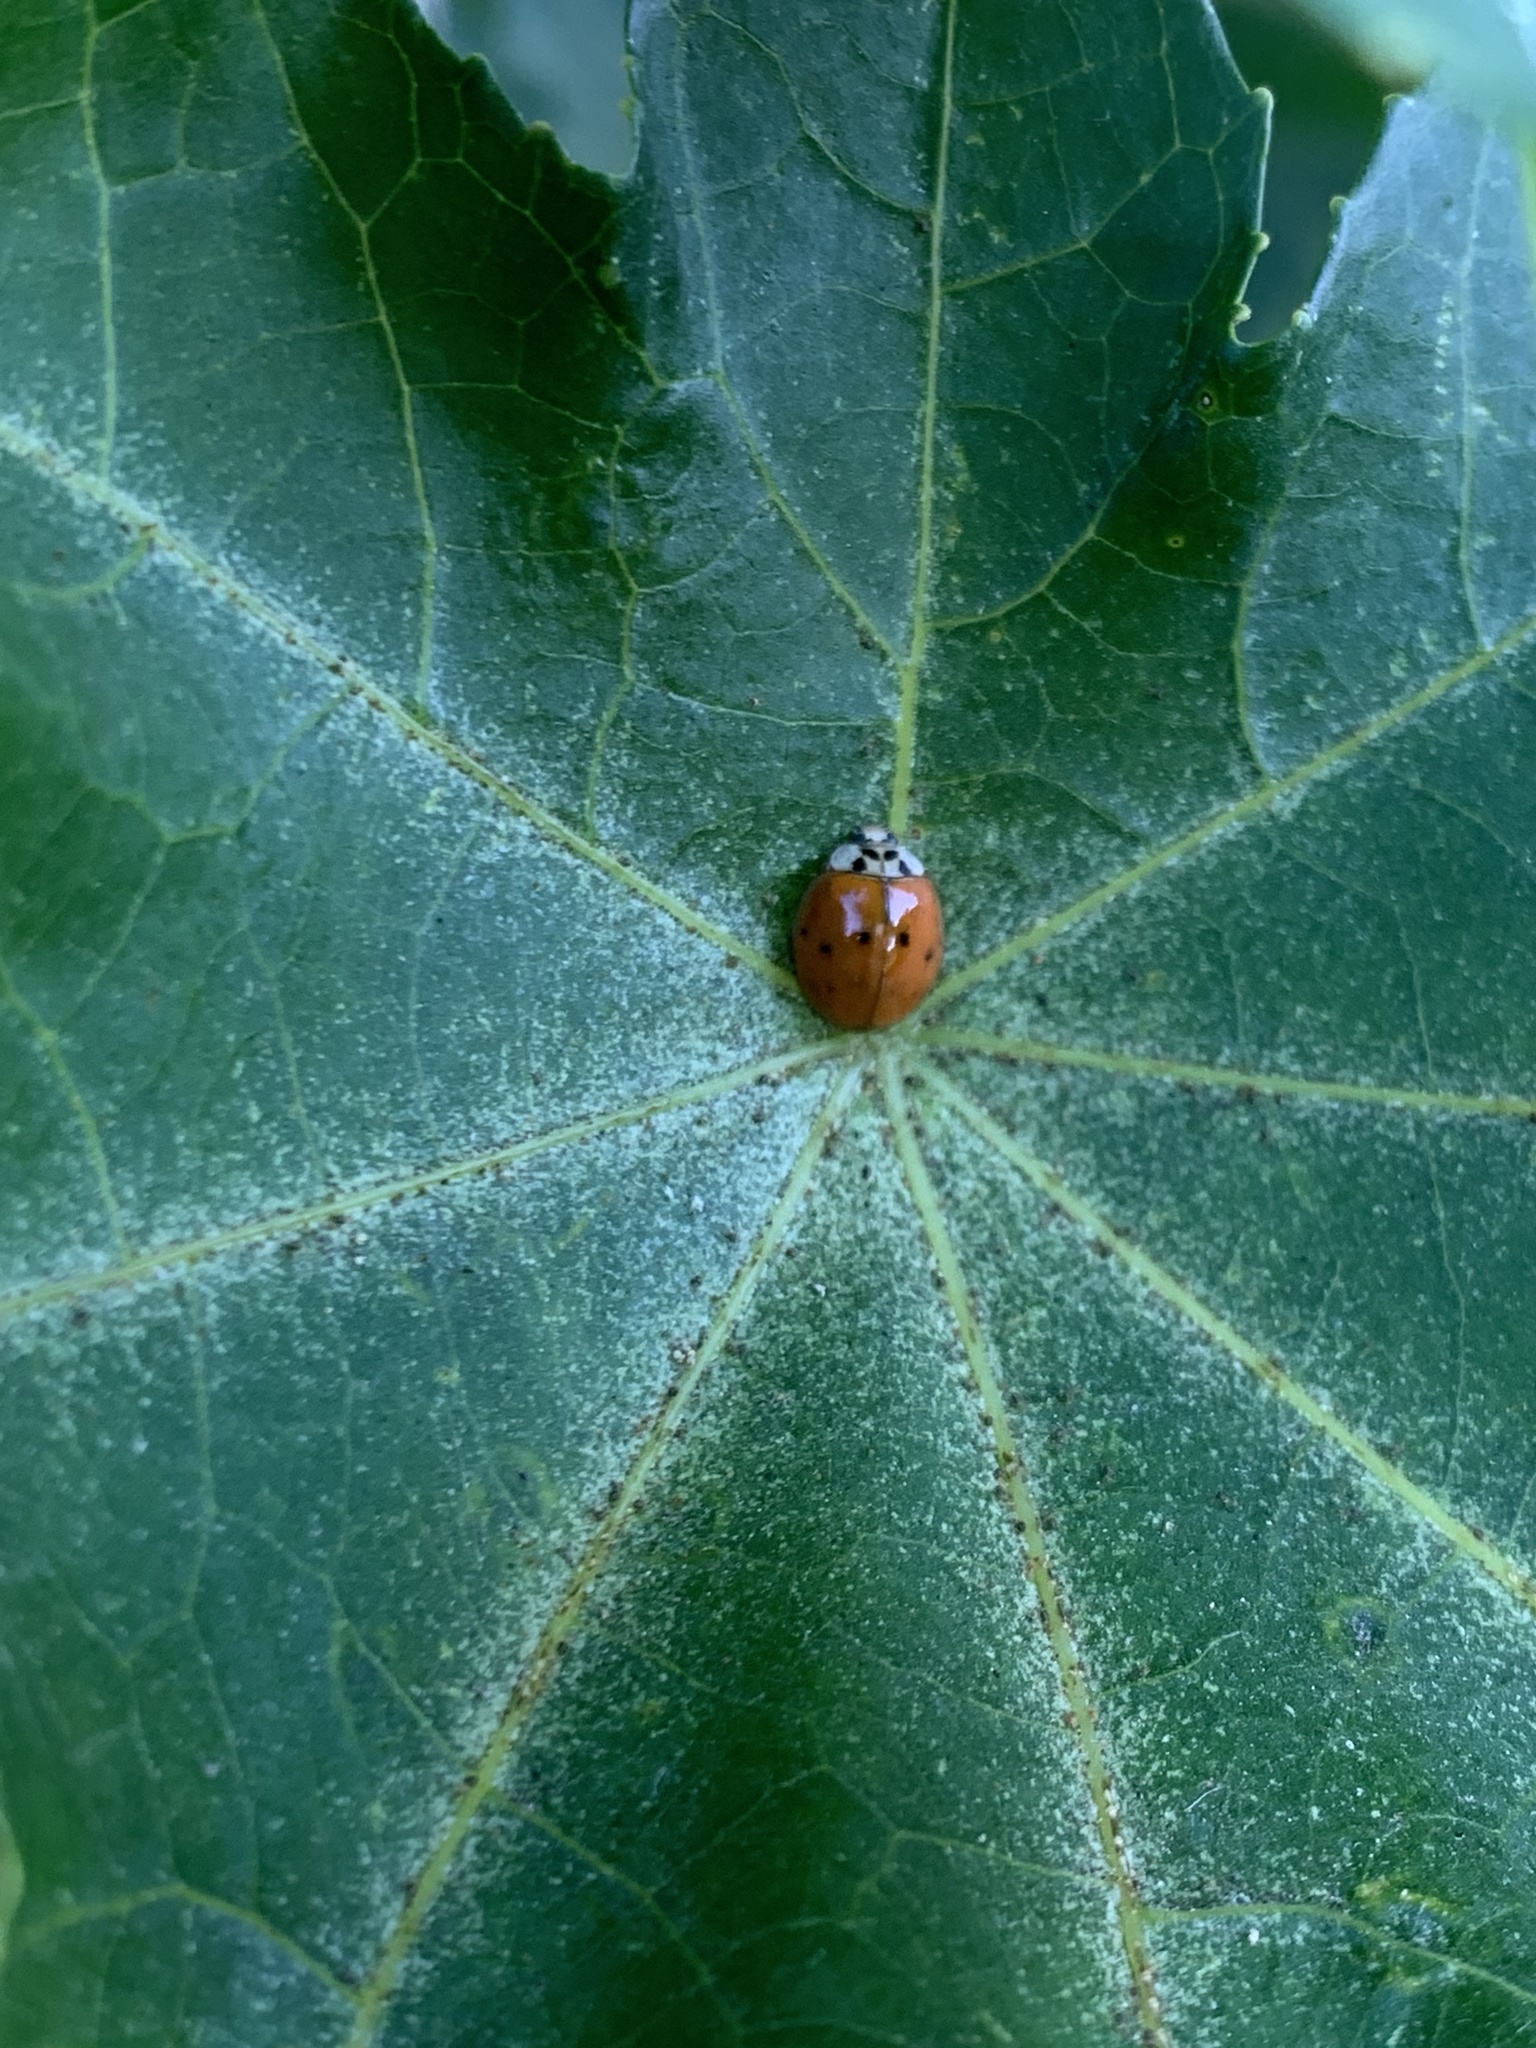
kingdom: Animalia
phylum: Arthropoda
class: Insecta
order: Coleoptera
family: Coccinellidae
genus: Harmonia
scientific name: Harmonia axyridis
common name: Harlequin ladybird
